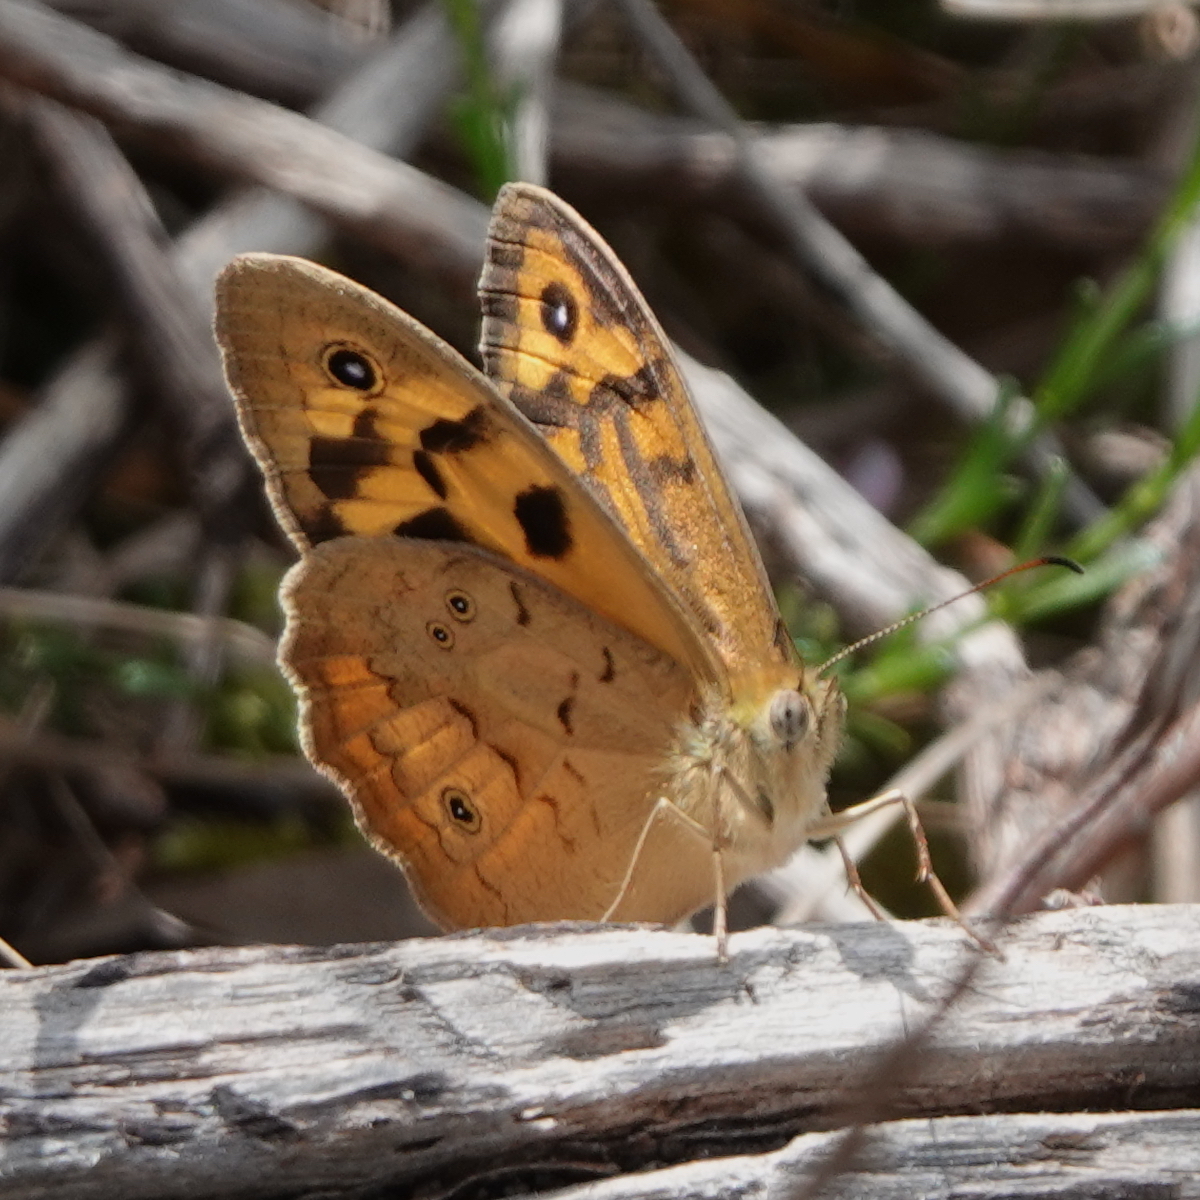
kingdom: Animalia
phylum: Arthropoda
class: Insecta
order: Lepidoptera
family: Nymphalidae
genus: Heteronympha
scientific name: Heteronympha merope
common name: Common brown
